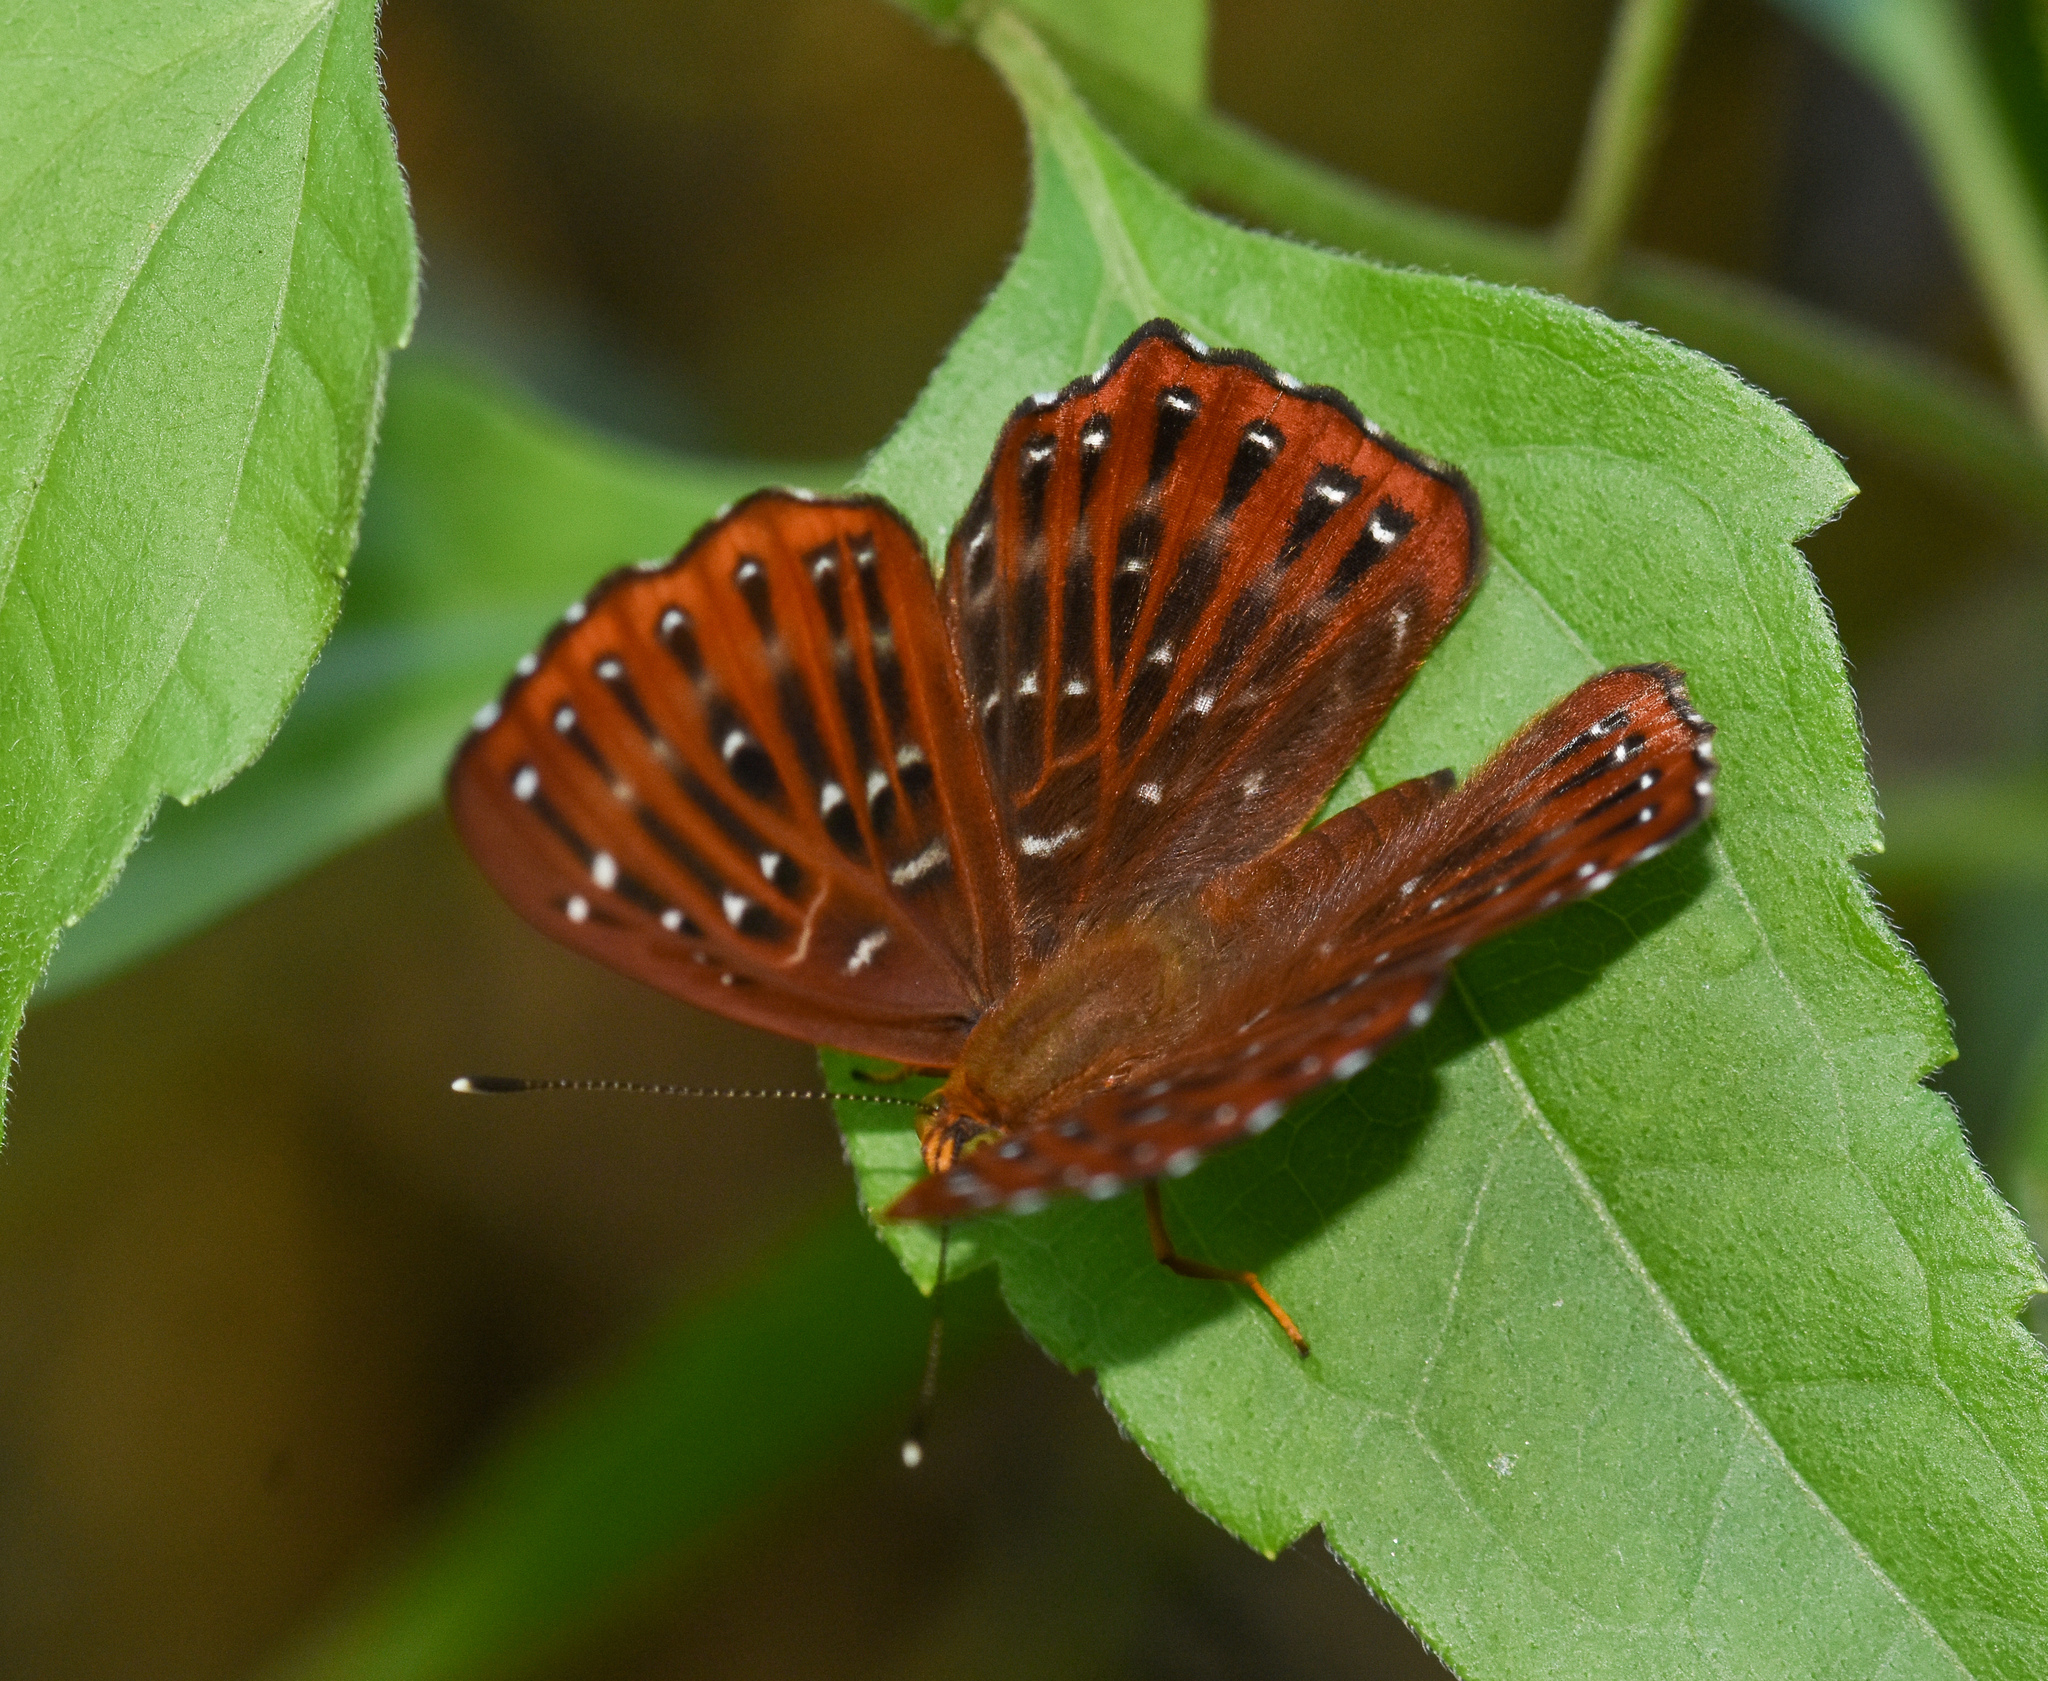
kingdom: Animalia
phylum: Arthropoda
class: Insecta
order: Lepidoptera
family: Riodinidae
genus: Zemeros
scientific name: Zemeros flegyas
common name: Punchinello
